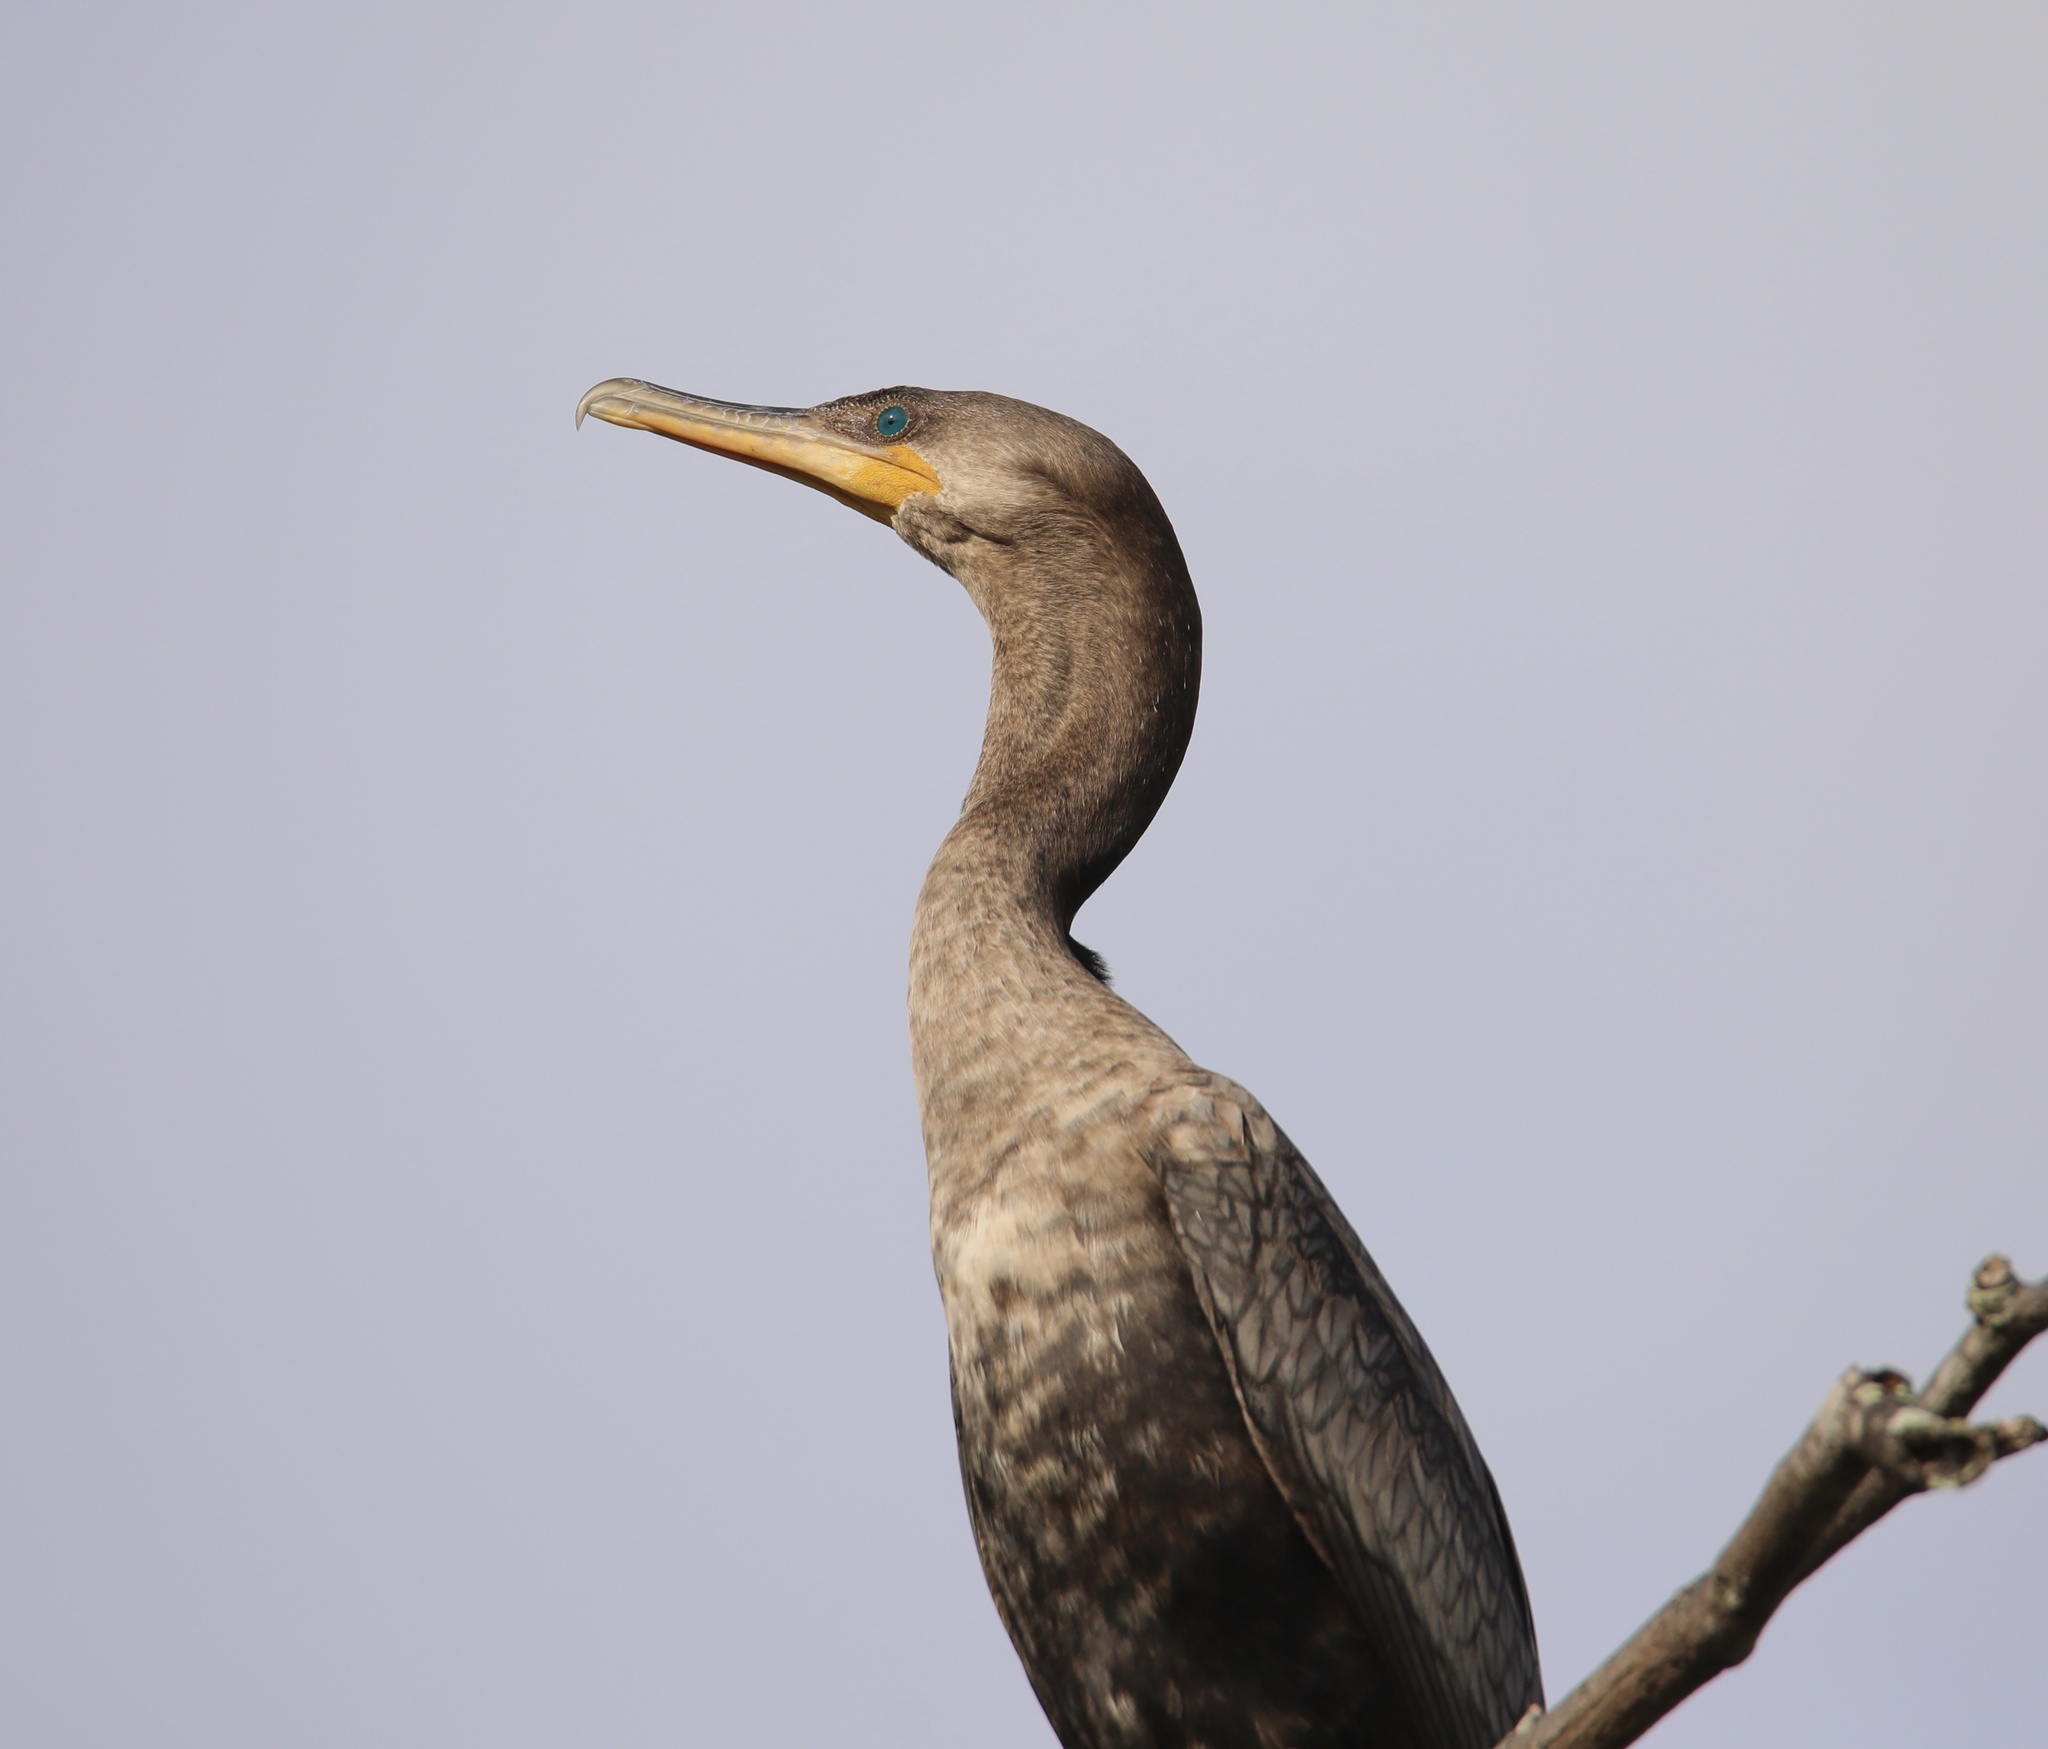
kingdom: Animalia
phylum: Chordata
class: Aves
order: Suliformes
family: Phalacrocoracidae
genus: Phalacrocorax
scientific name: Phalacrocorax brasilianus
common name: Neotropic cormorant
